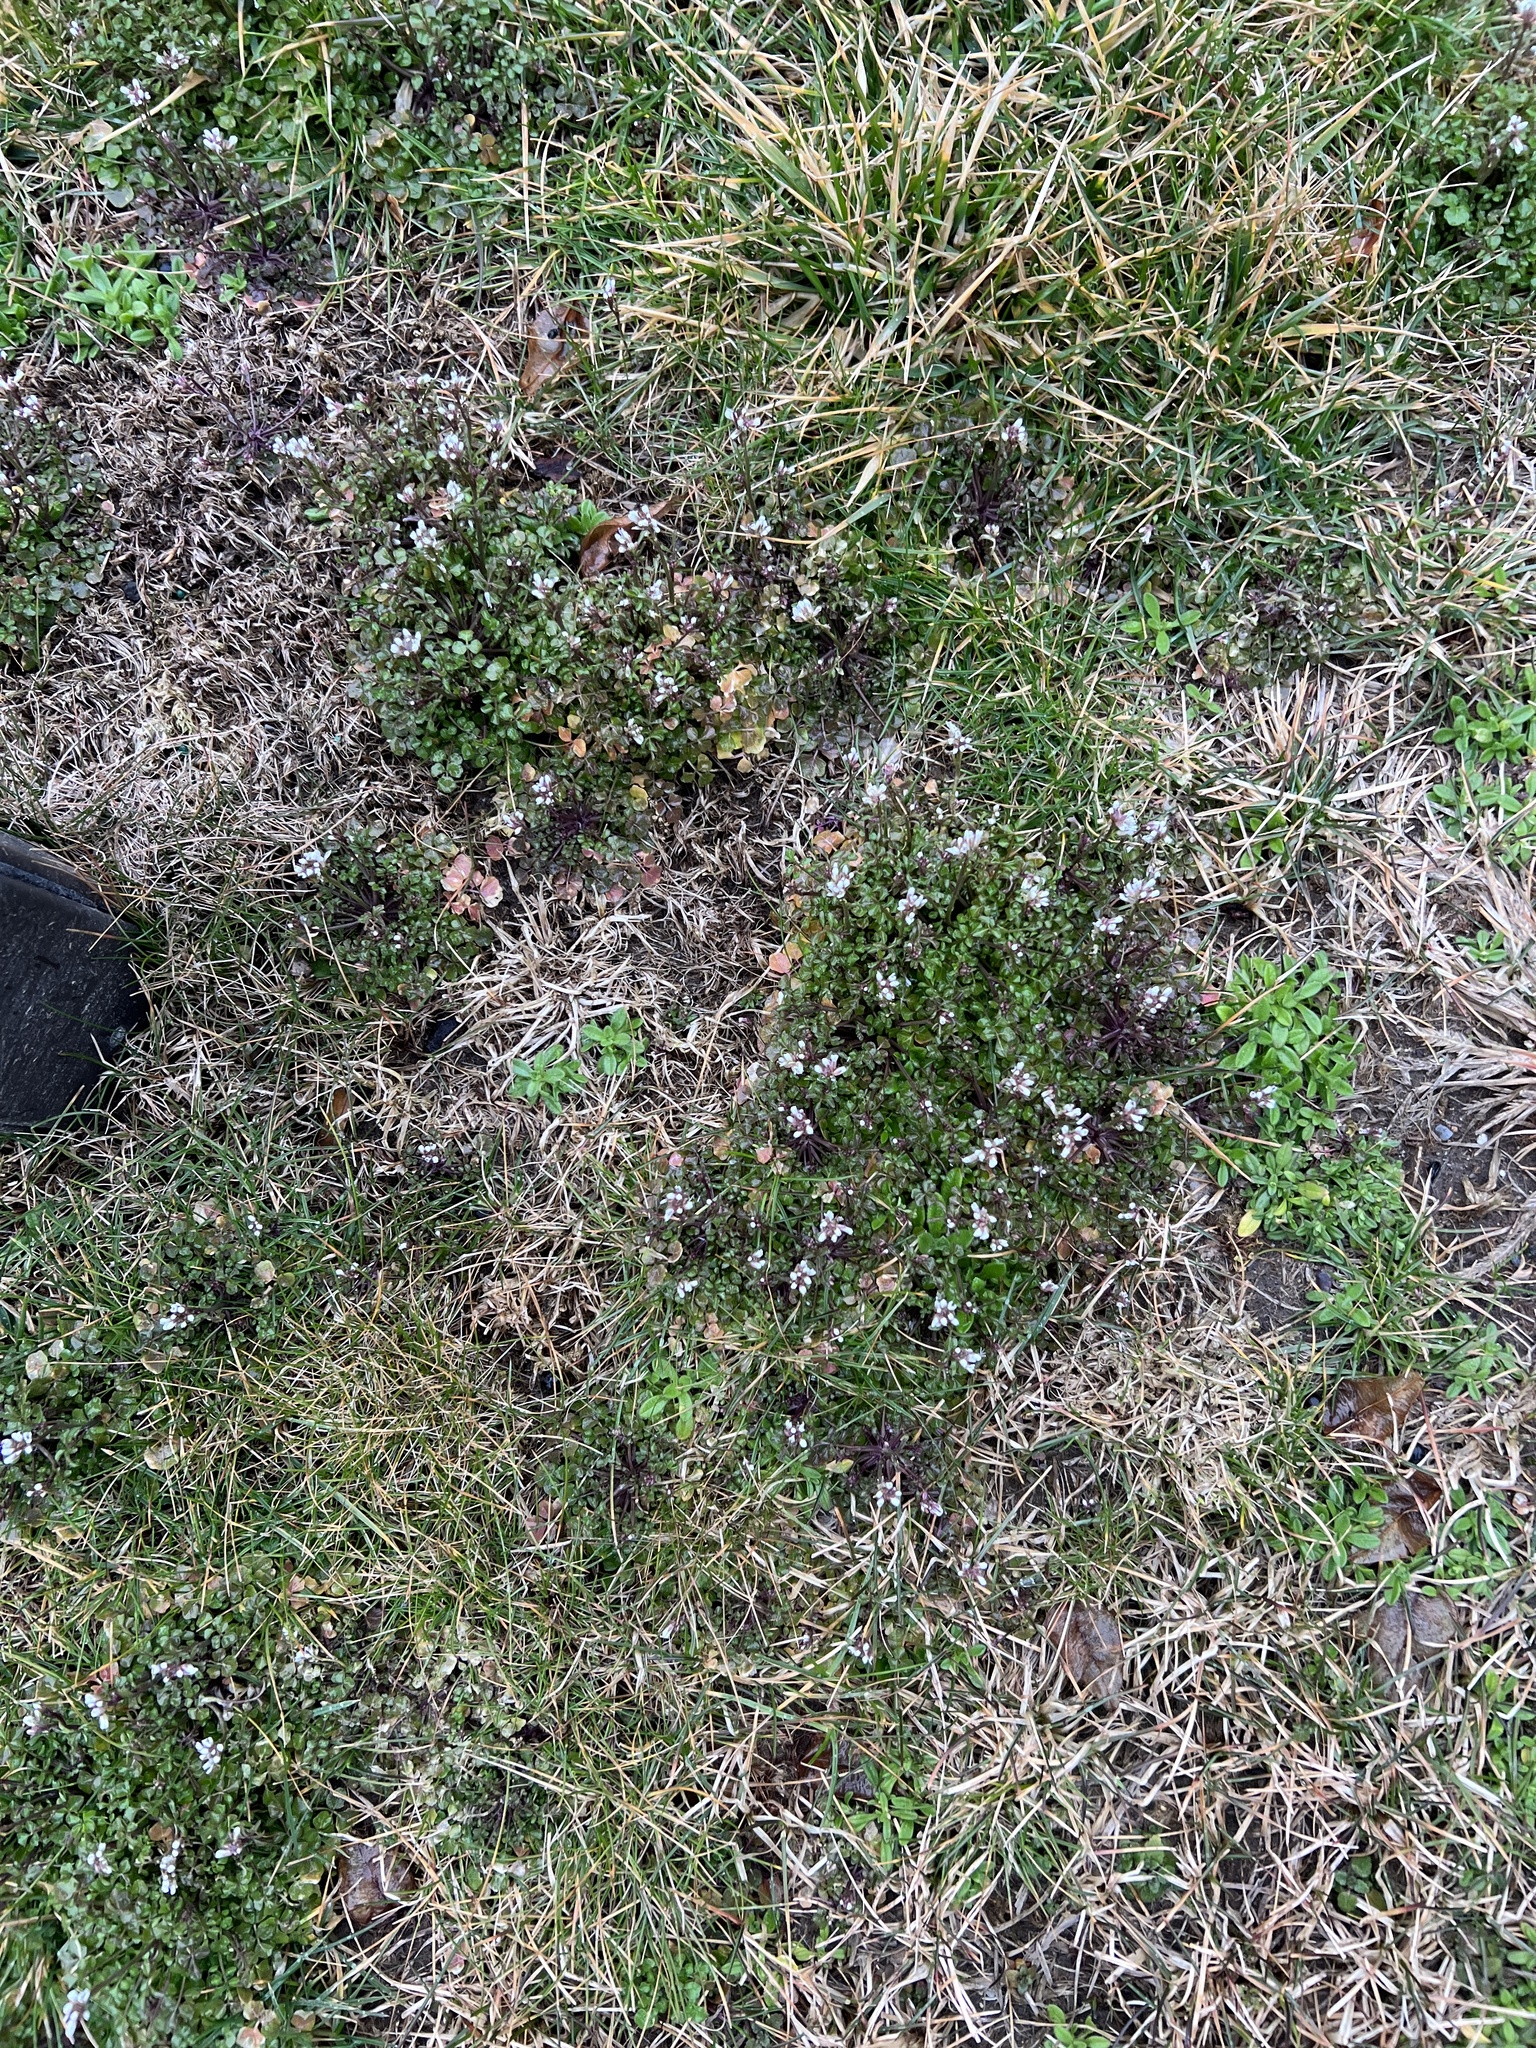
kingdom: Plantae
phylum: Tracheophyta
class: Magnoliopsida
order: Brassicales
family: Brassicaceae
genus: Cardamine
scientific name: Cardamine hirsuta
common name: Hairy bittercress
